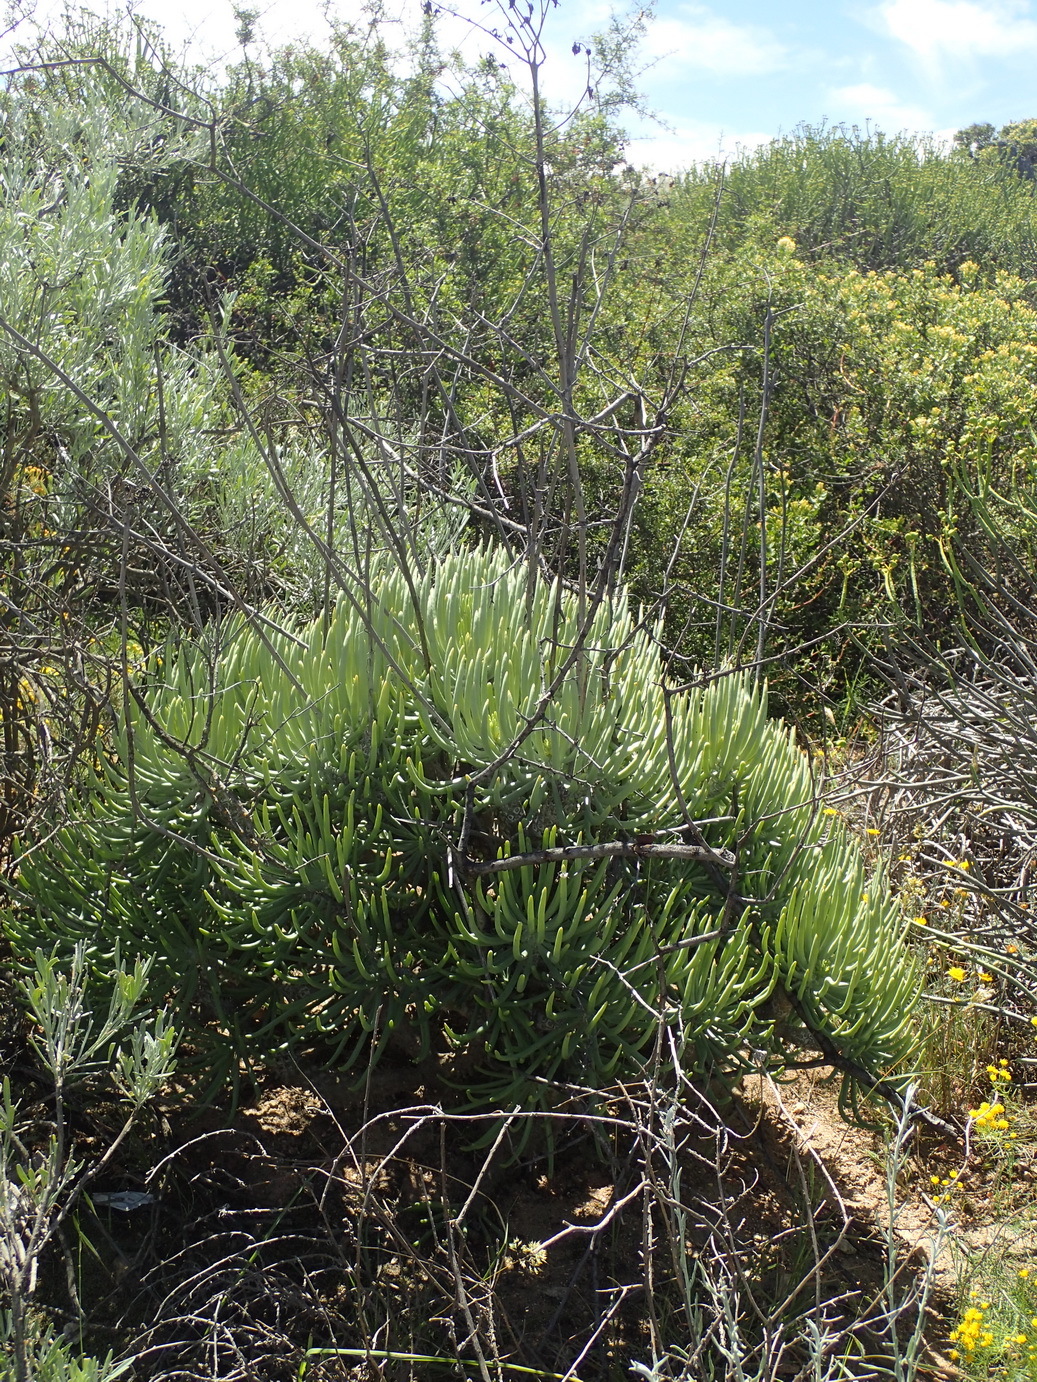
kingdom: Plantae
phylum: Tracheophyta
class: Magnoliopsida
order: Saxifragales
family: Crassulaceae
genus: Tylecodon
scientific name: Tylecodon wallichii
